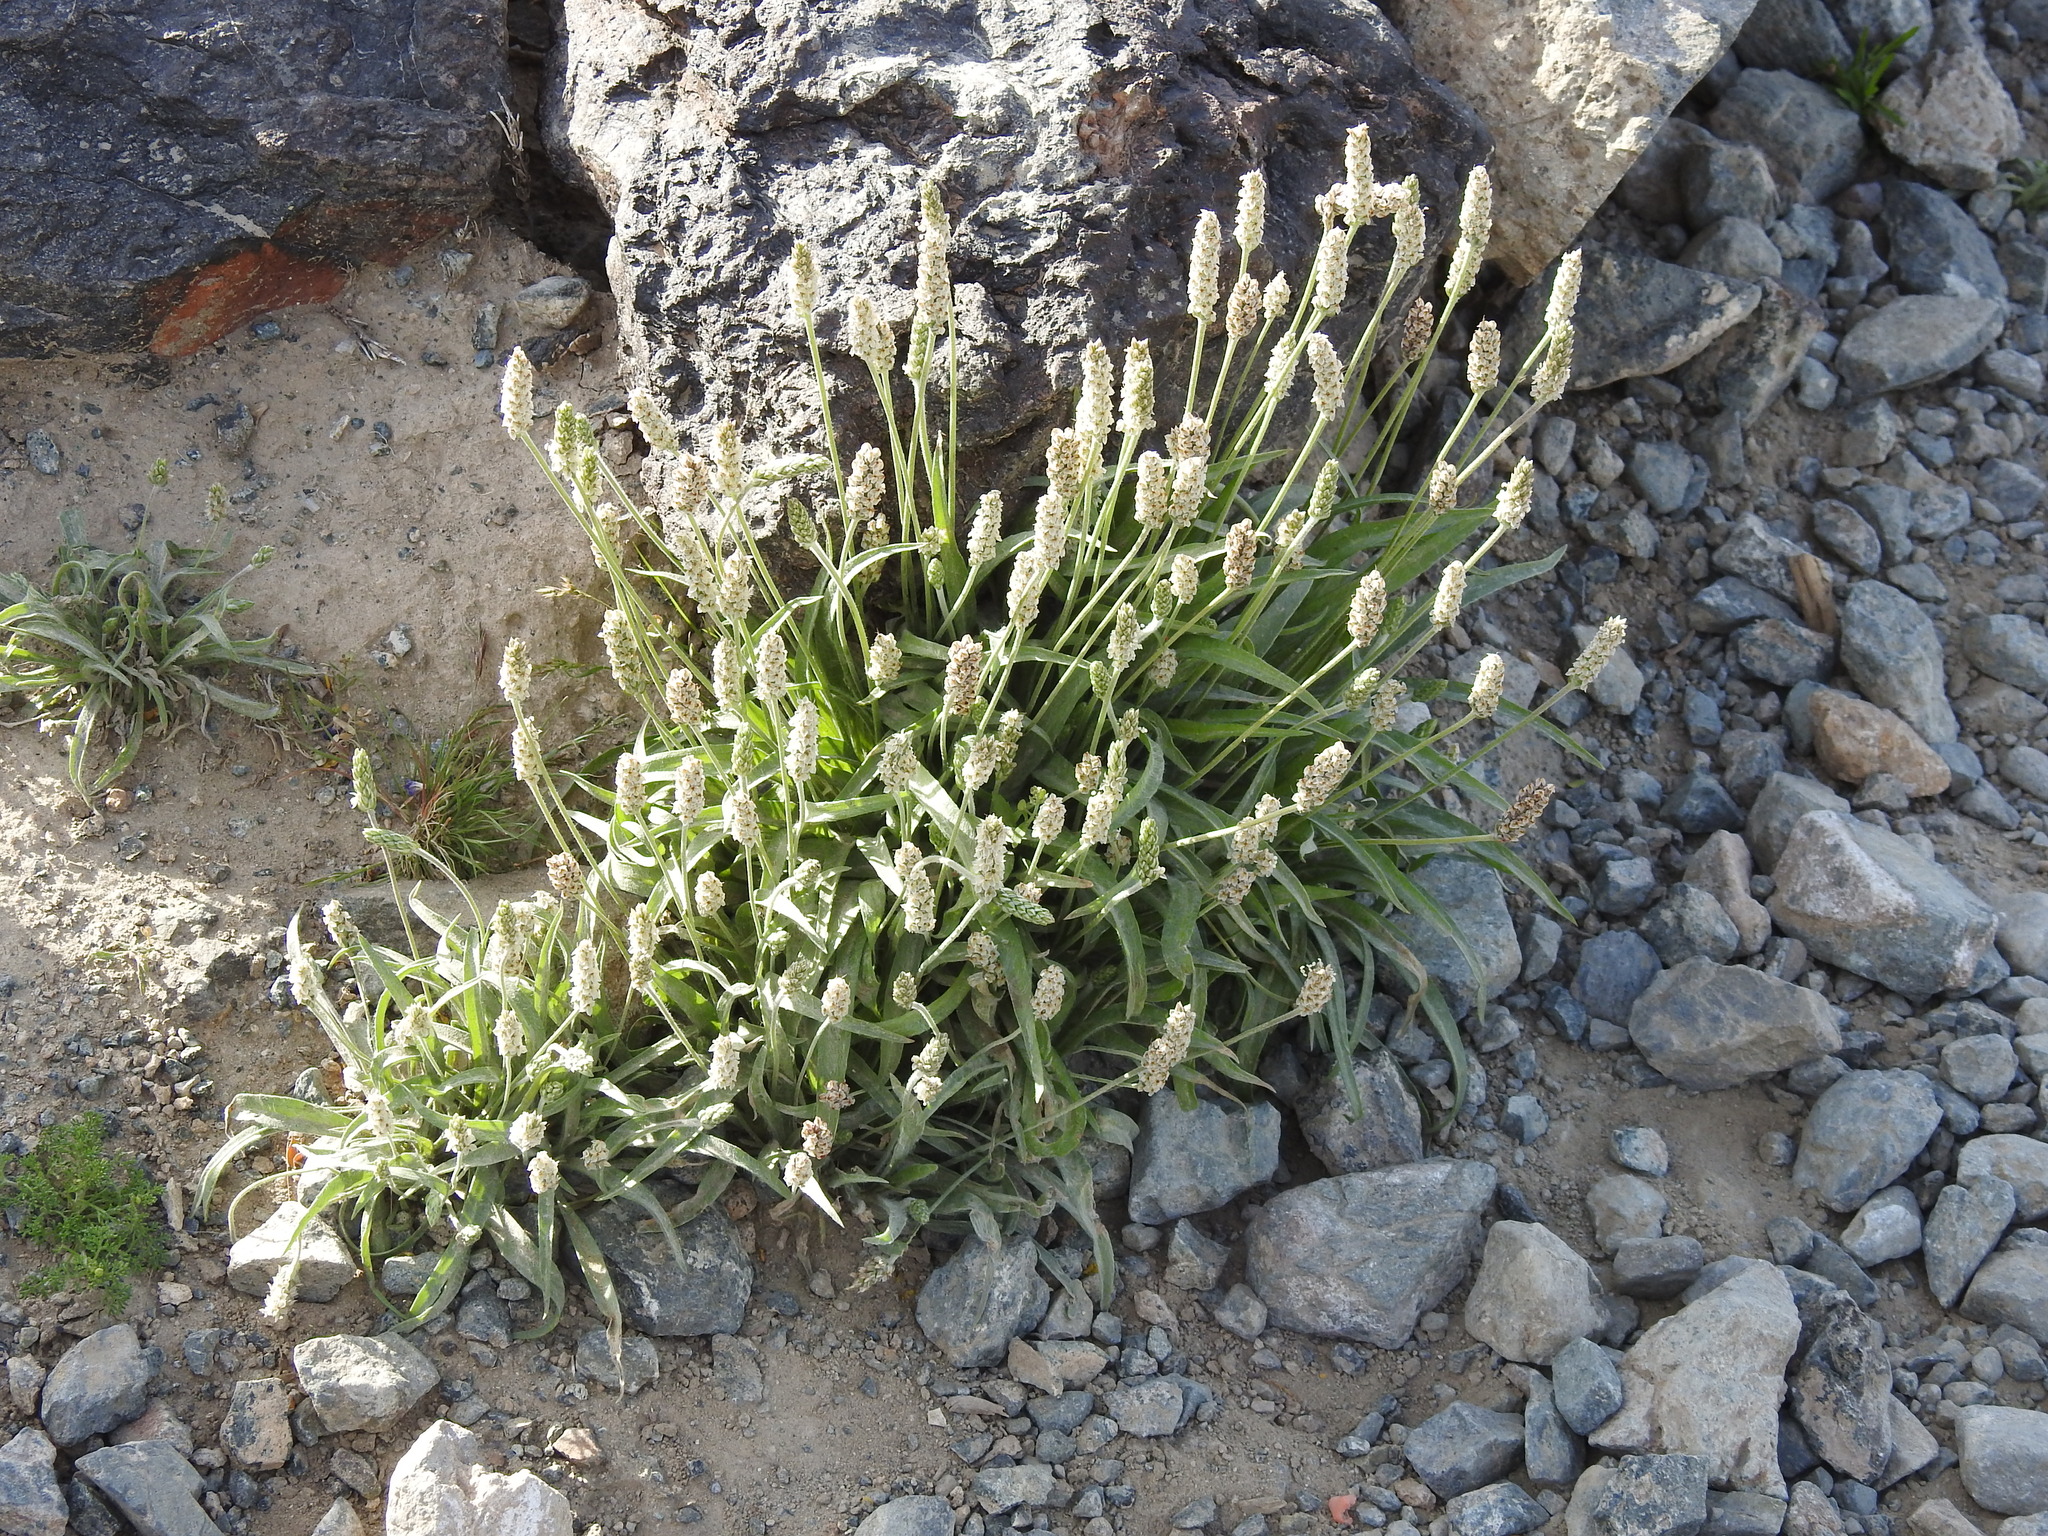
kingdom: Plantae
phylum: Tracheophyta
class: Magnoliopsida
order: Lamiales
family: Plantaginaceae
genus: Plantago
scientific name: Plantago ovata
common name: Blond plantain
